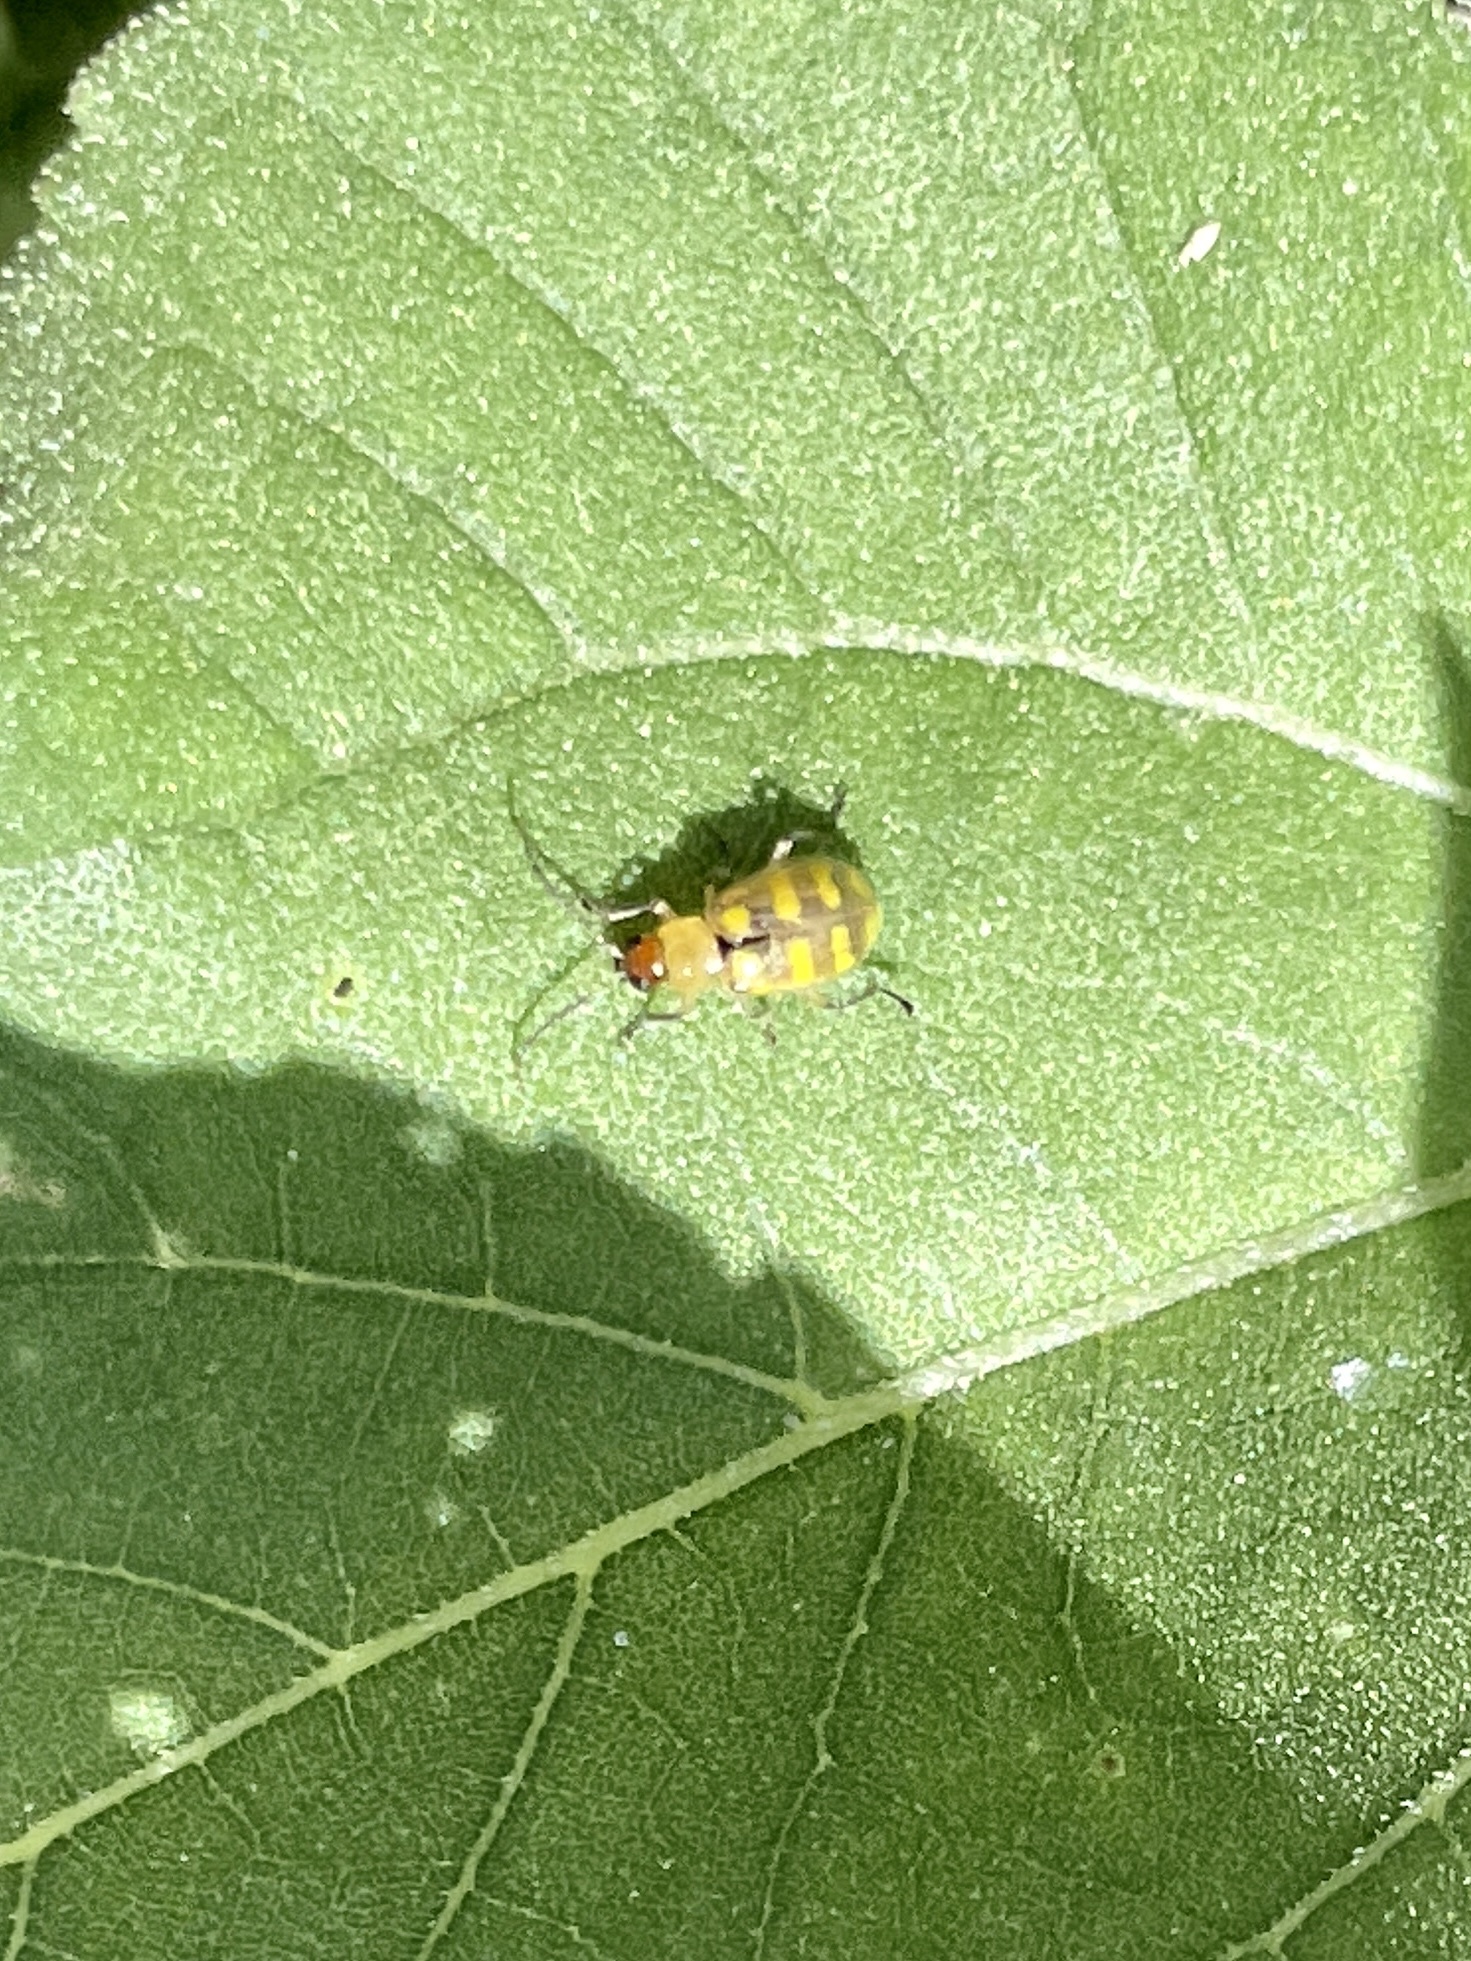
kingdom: Animalia
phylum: Arthropoda
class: Insecta
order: Coleoptera
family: Chrysomelidae
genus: Diabrotica
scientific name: Diabrotica balteata
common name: Leaf beetle
